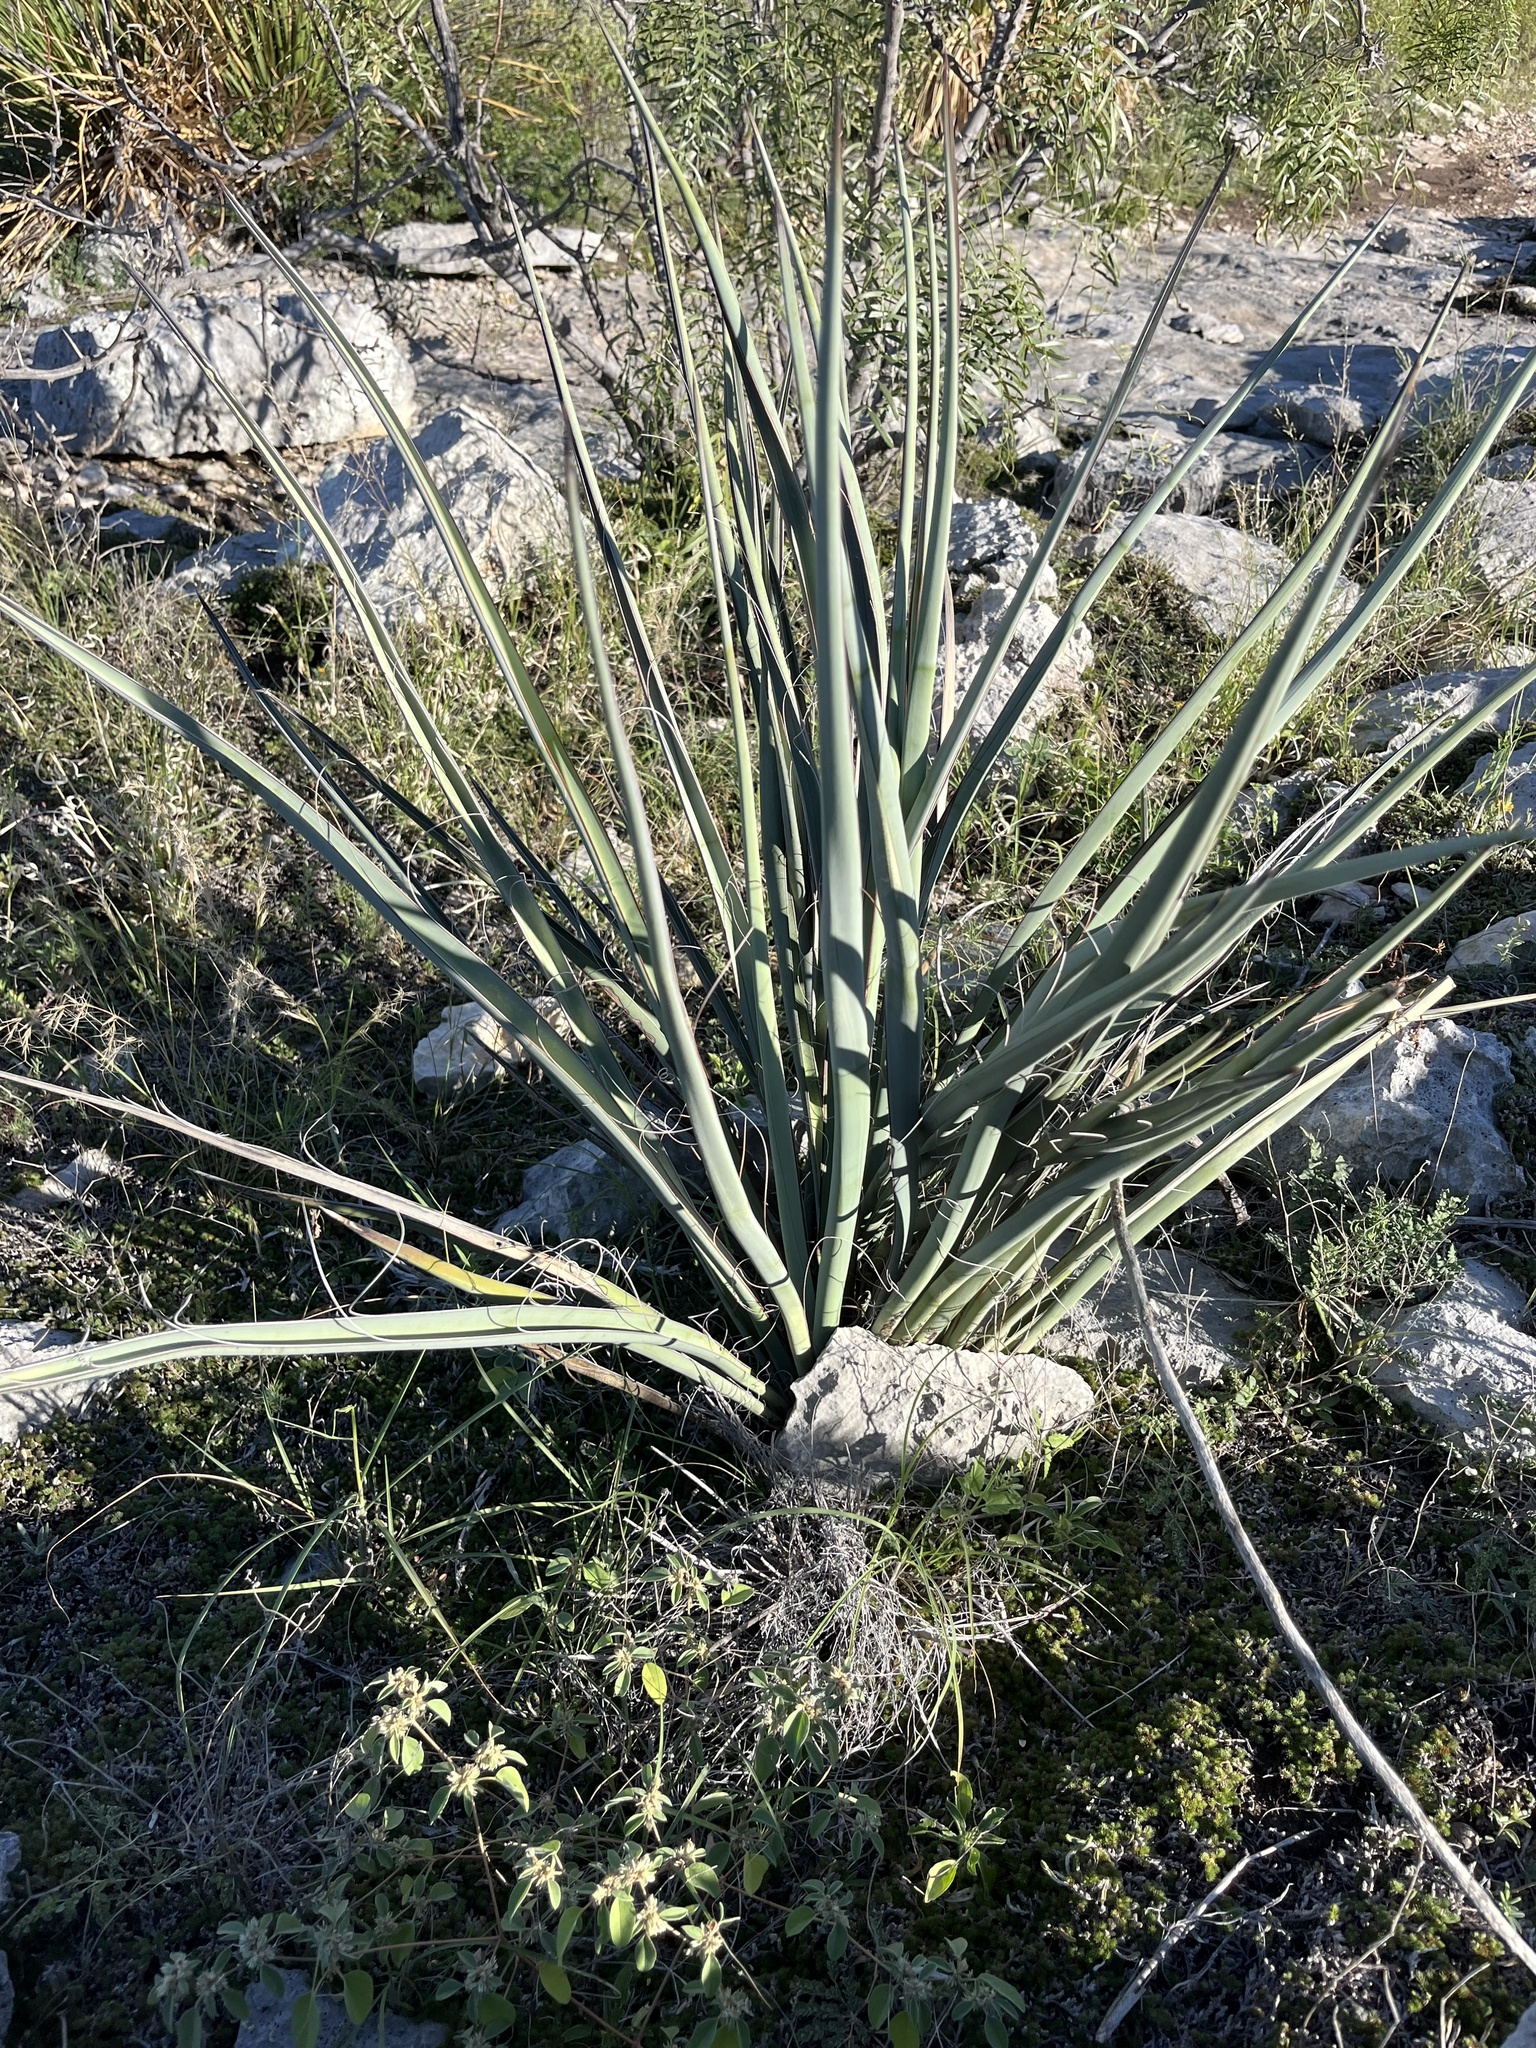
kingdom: Plantae
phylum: Tracheophyta
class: Liliopsida
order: Asparagales
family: Asparagaceae
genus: Yucca
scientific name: Yucca treculiana
